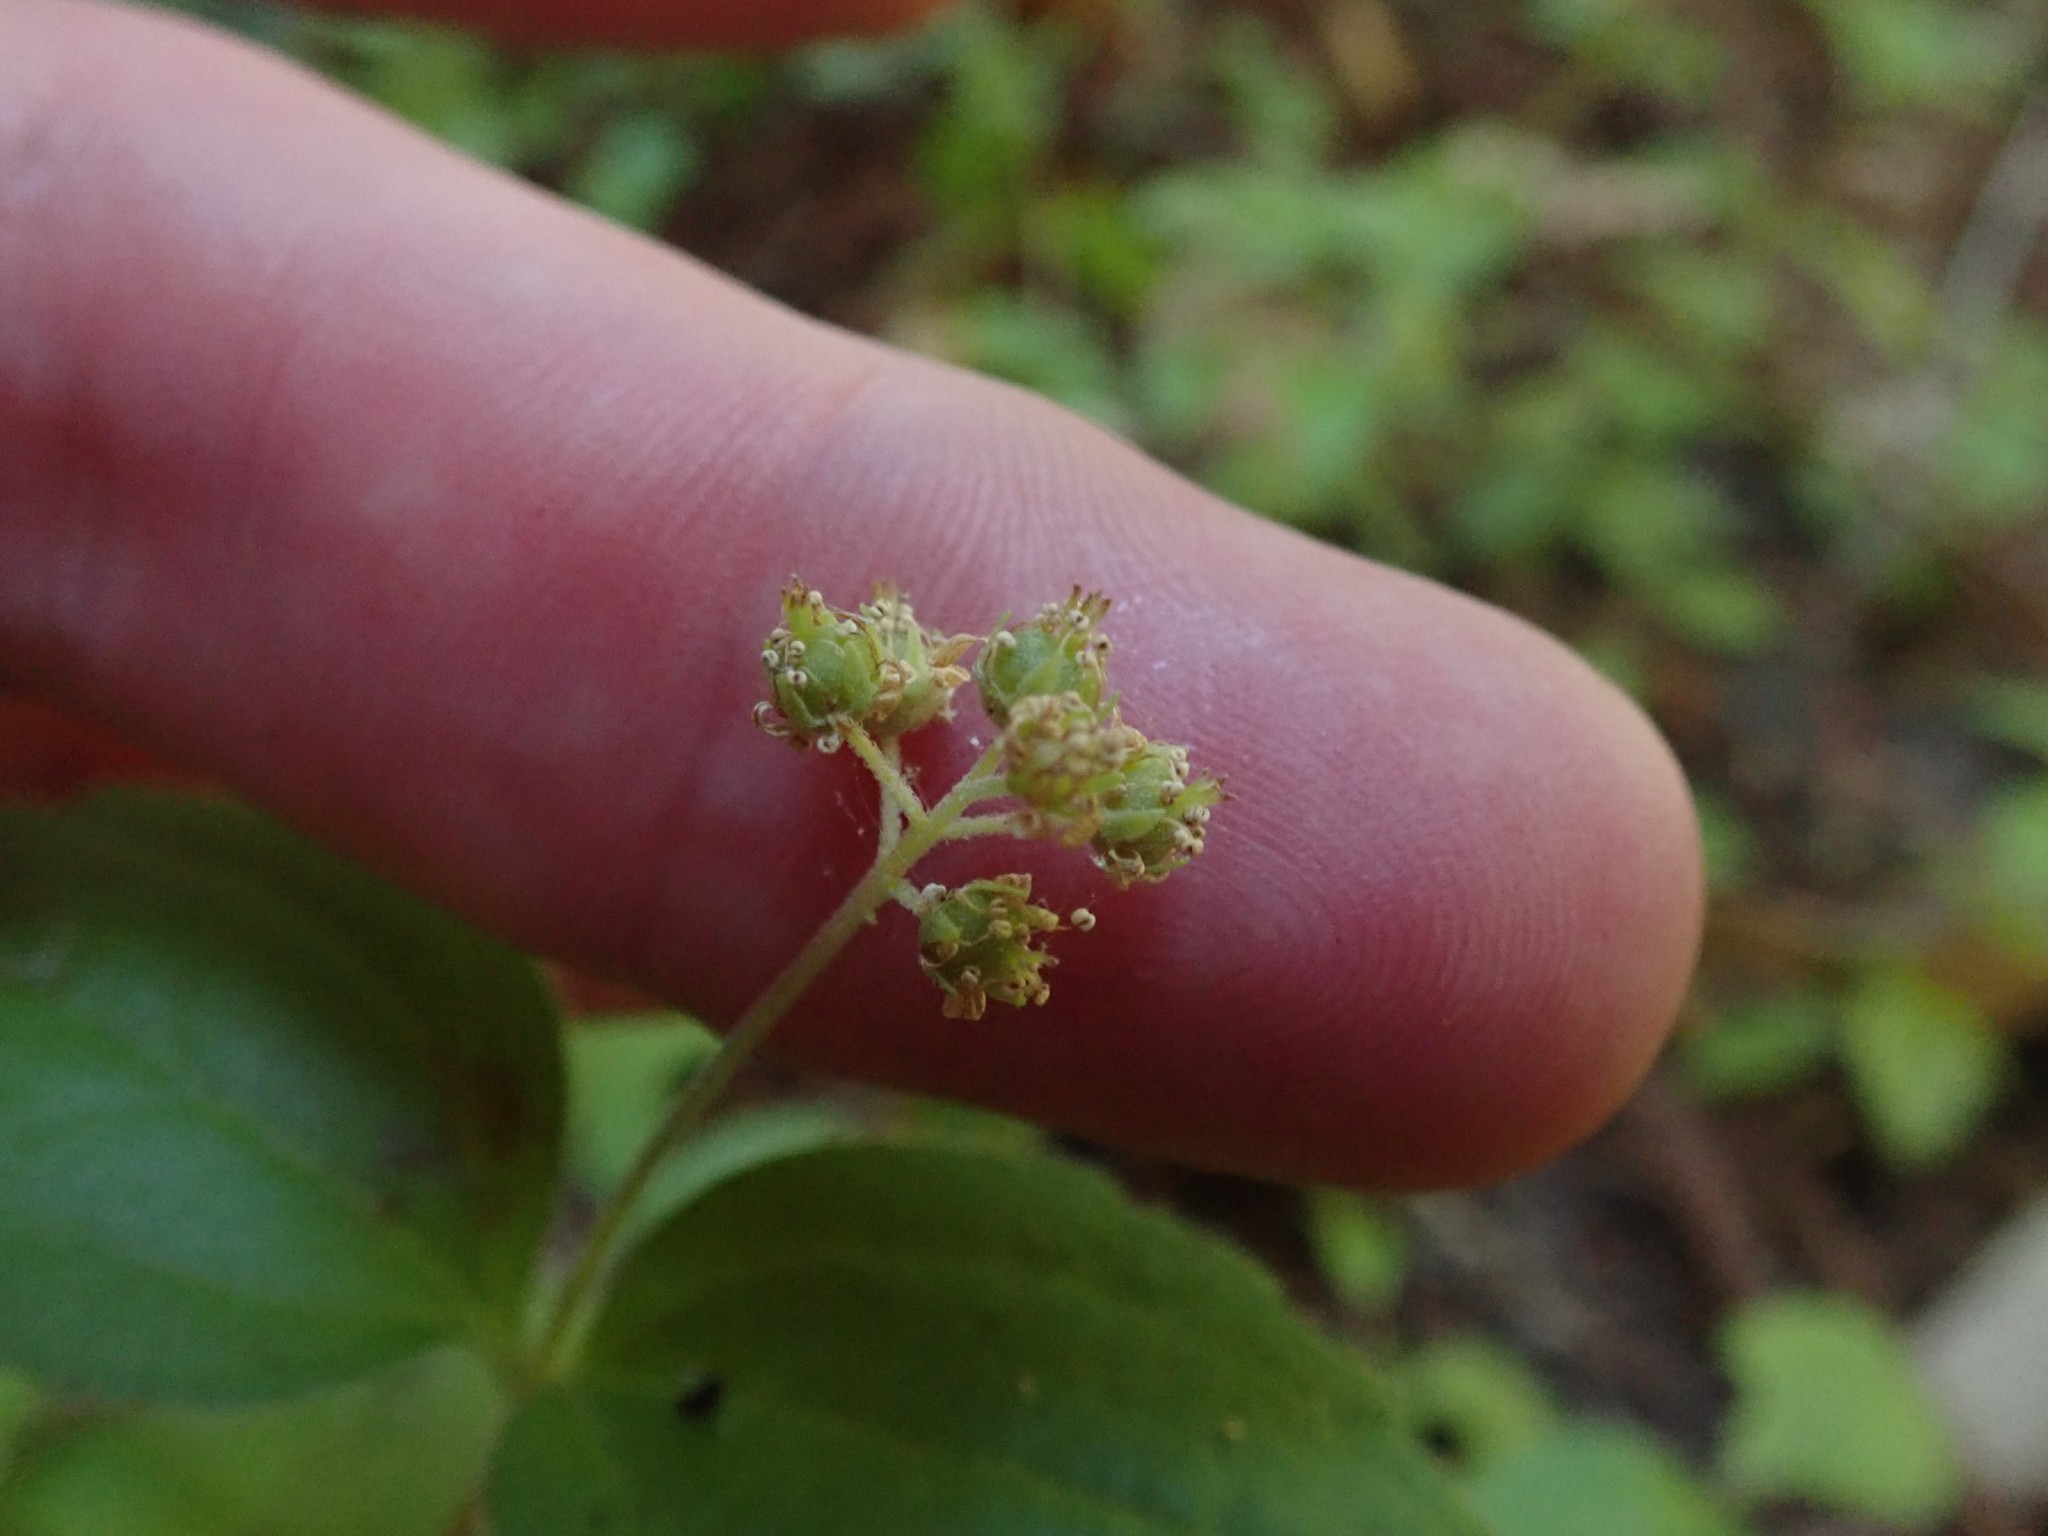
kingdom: Plantae
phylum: Tracheophyta
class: Magnoliopsida
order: Cornales
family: Hydrangeaceae
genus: Whipplea
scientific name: Whipplea modesta
